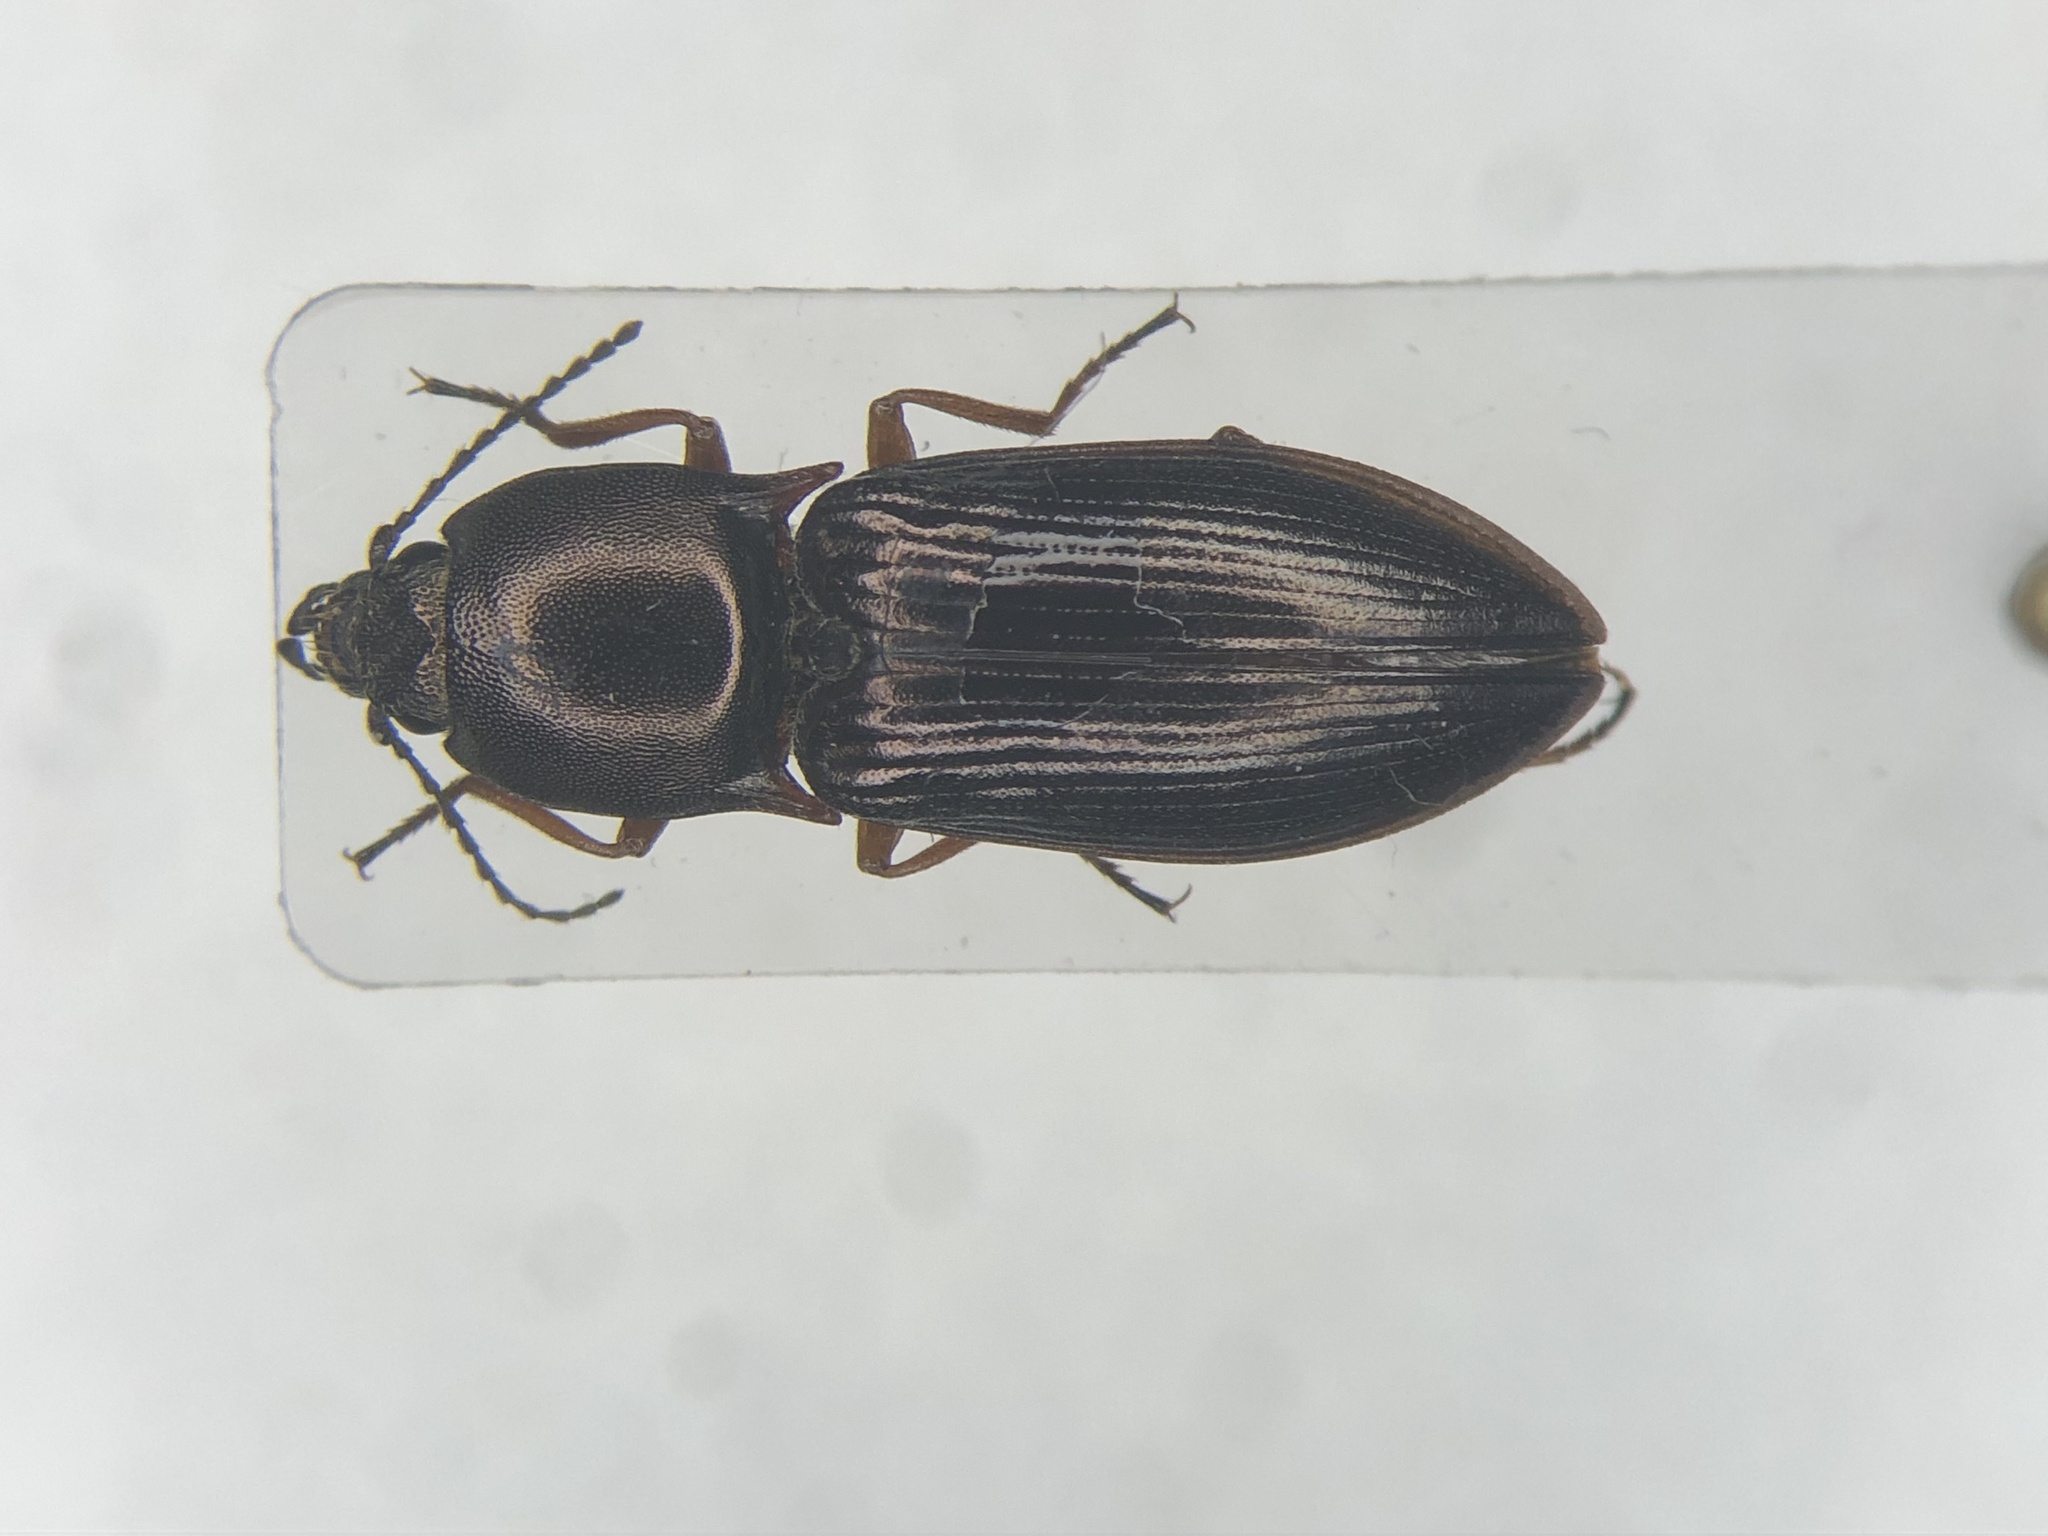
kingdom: Animalia
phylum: Arthropoda
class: Insecta
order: Coleoptera
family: Elateridae
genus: Selatosomus
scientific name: Selatosomus splendens
